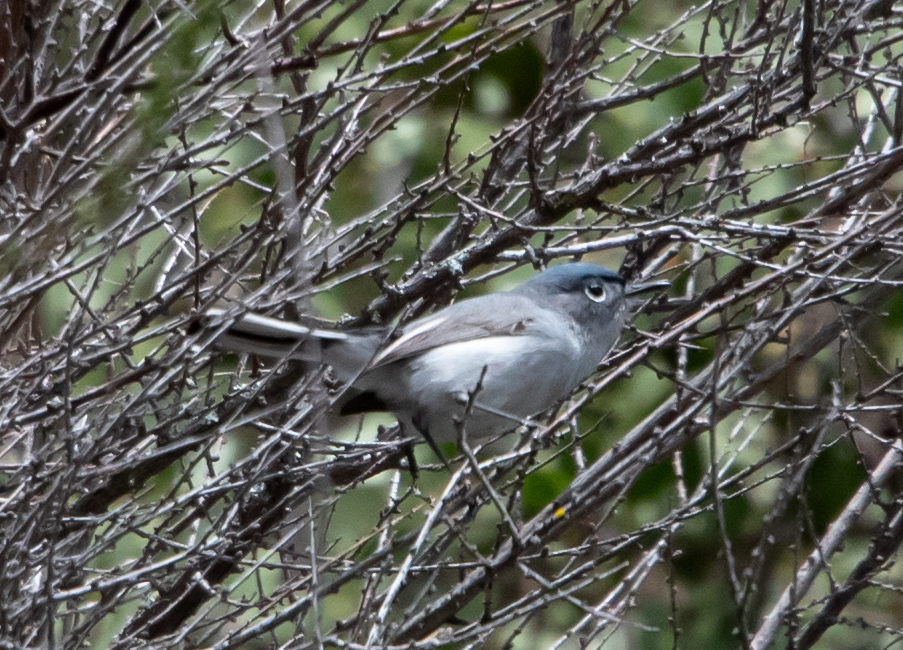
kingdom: Animalia
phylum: Chordata
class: Aves
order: Passeriformes
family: Polioptilidae
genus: Polioptila
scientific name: Polioptila caerulea
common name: Blue-gray gnatcatcher
